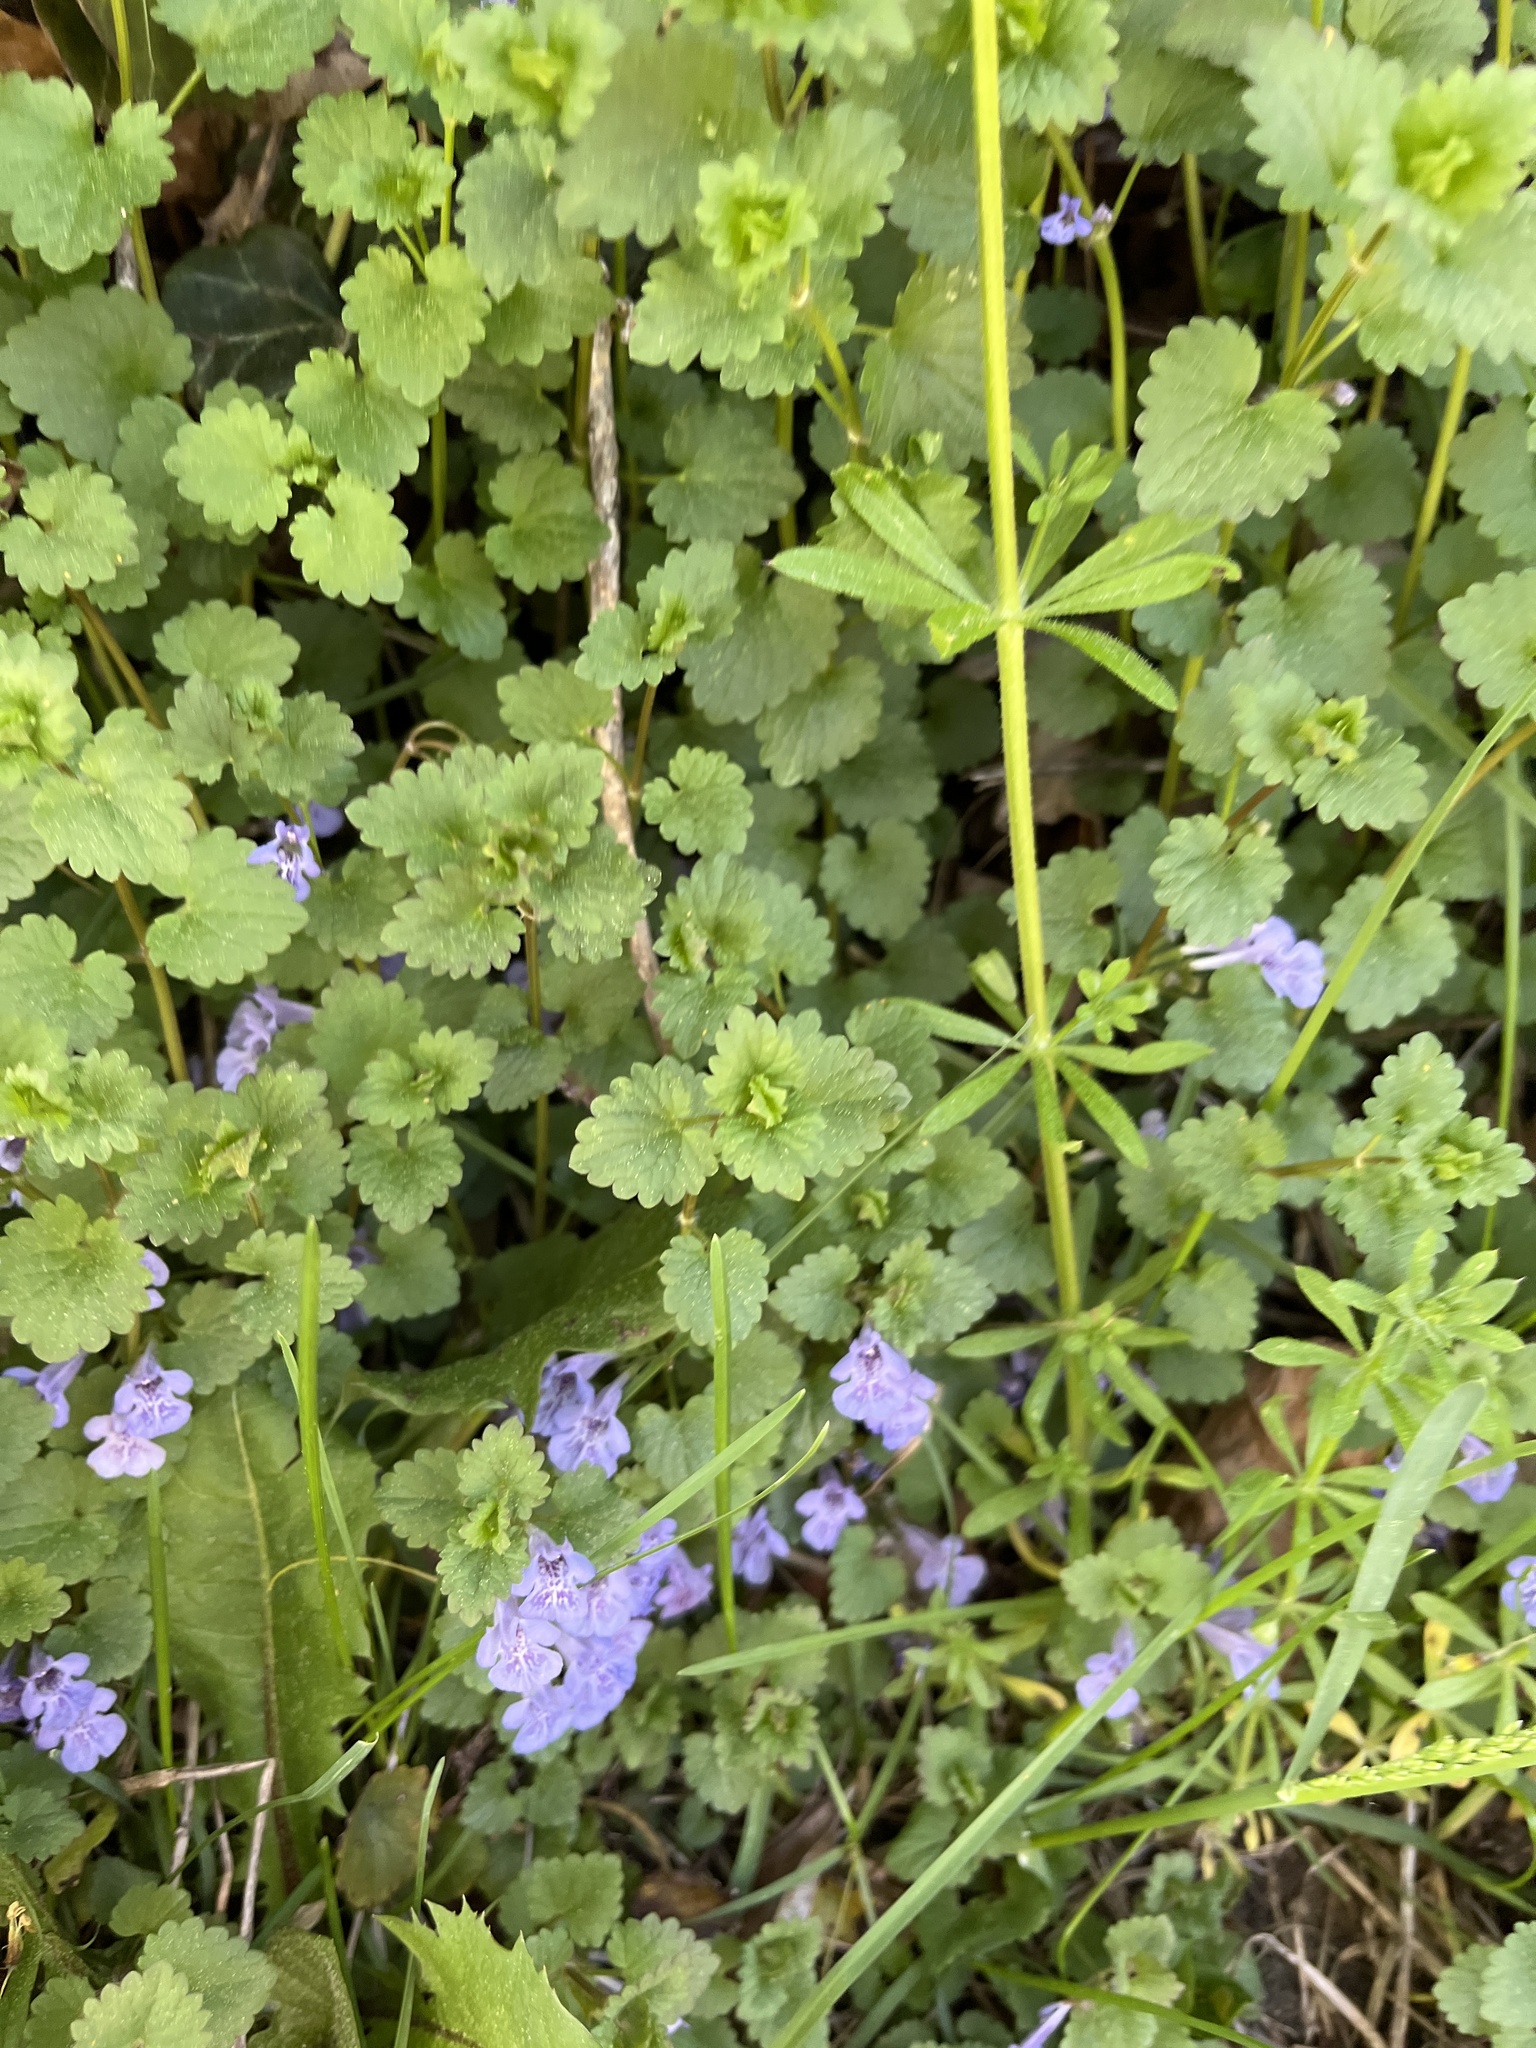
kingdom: Plantae
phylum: Tracheophyta
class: Magnoliopsida
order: Lamiales
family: Lamiaceae
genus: Glechoma
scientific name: Glechoma hederacea
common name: Ground ivy
